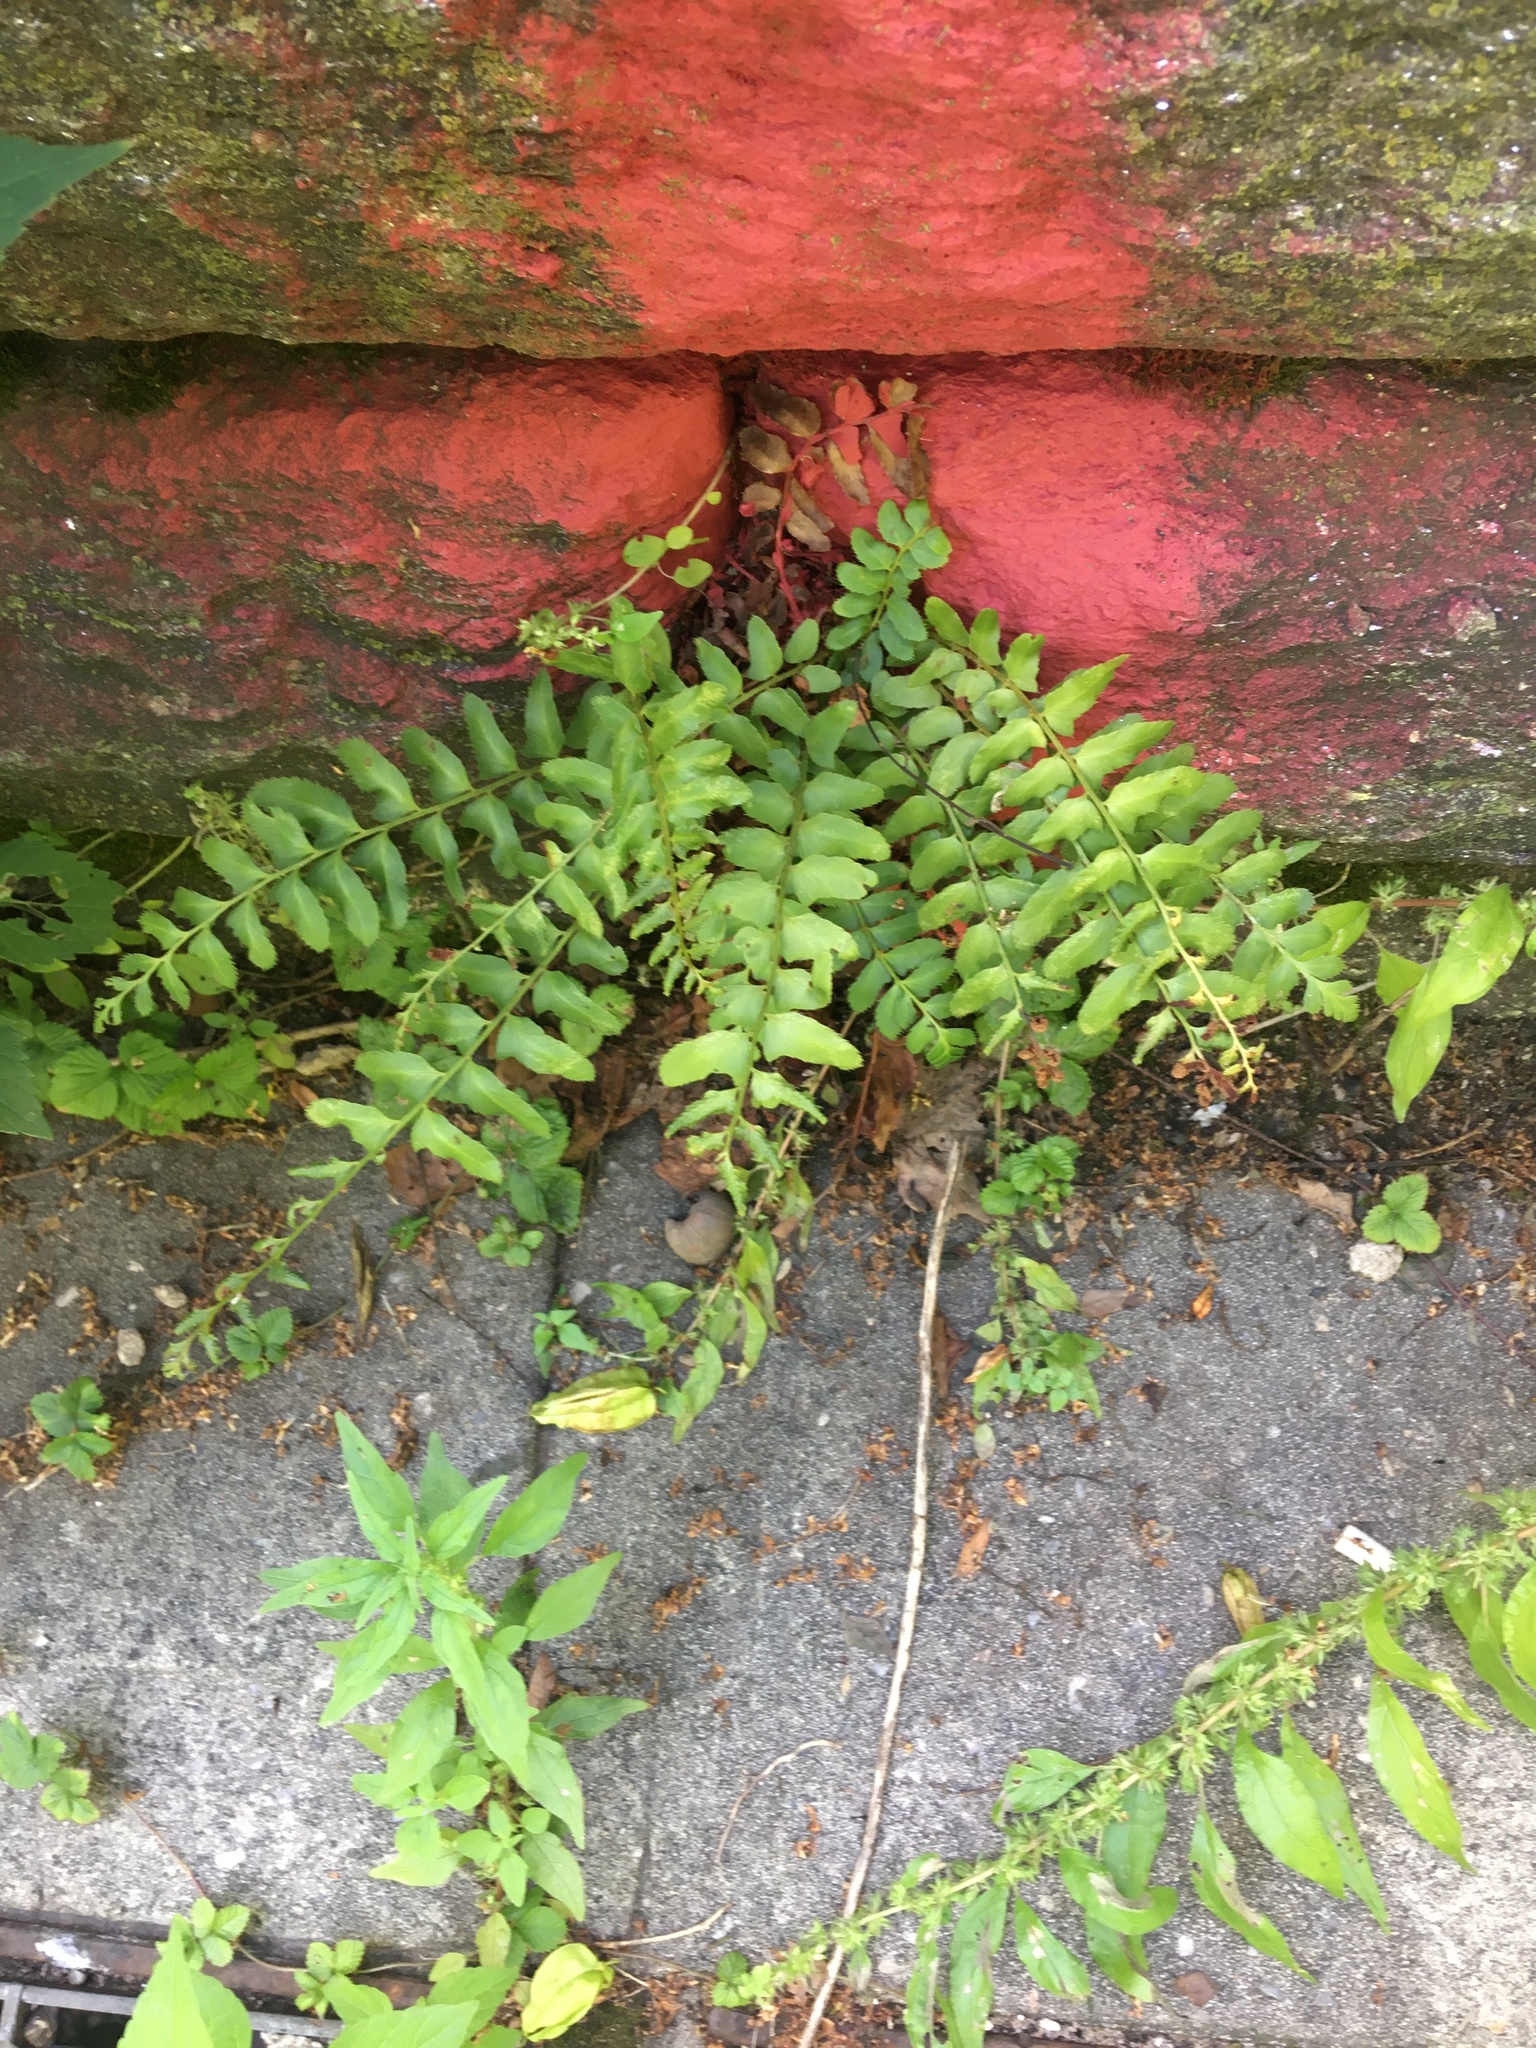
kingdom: Plantae
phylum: Tracheophyta
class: Polypodiopsida
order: Polypodiales
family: Dryopteridaceae
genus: Polystichum
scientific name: Polystichum acrostichoides
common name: Christmas fern
